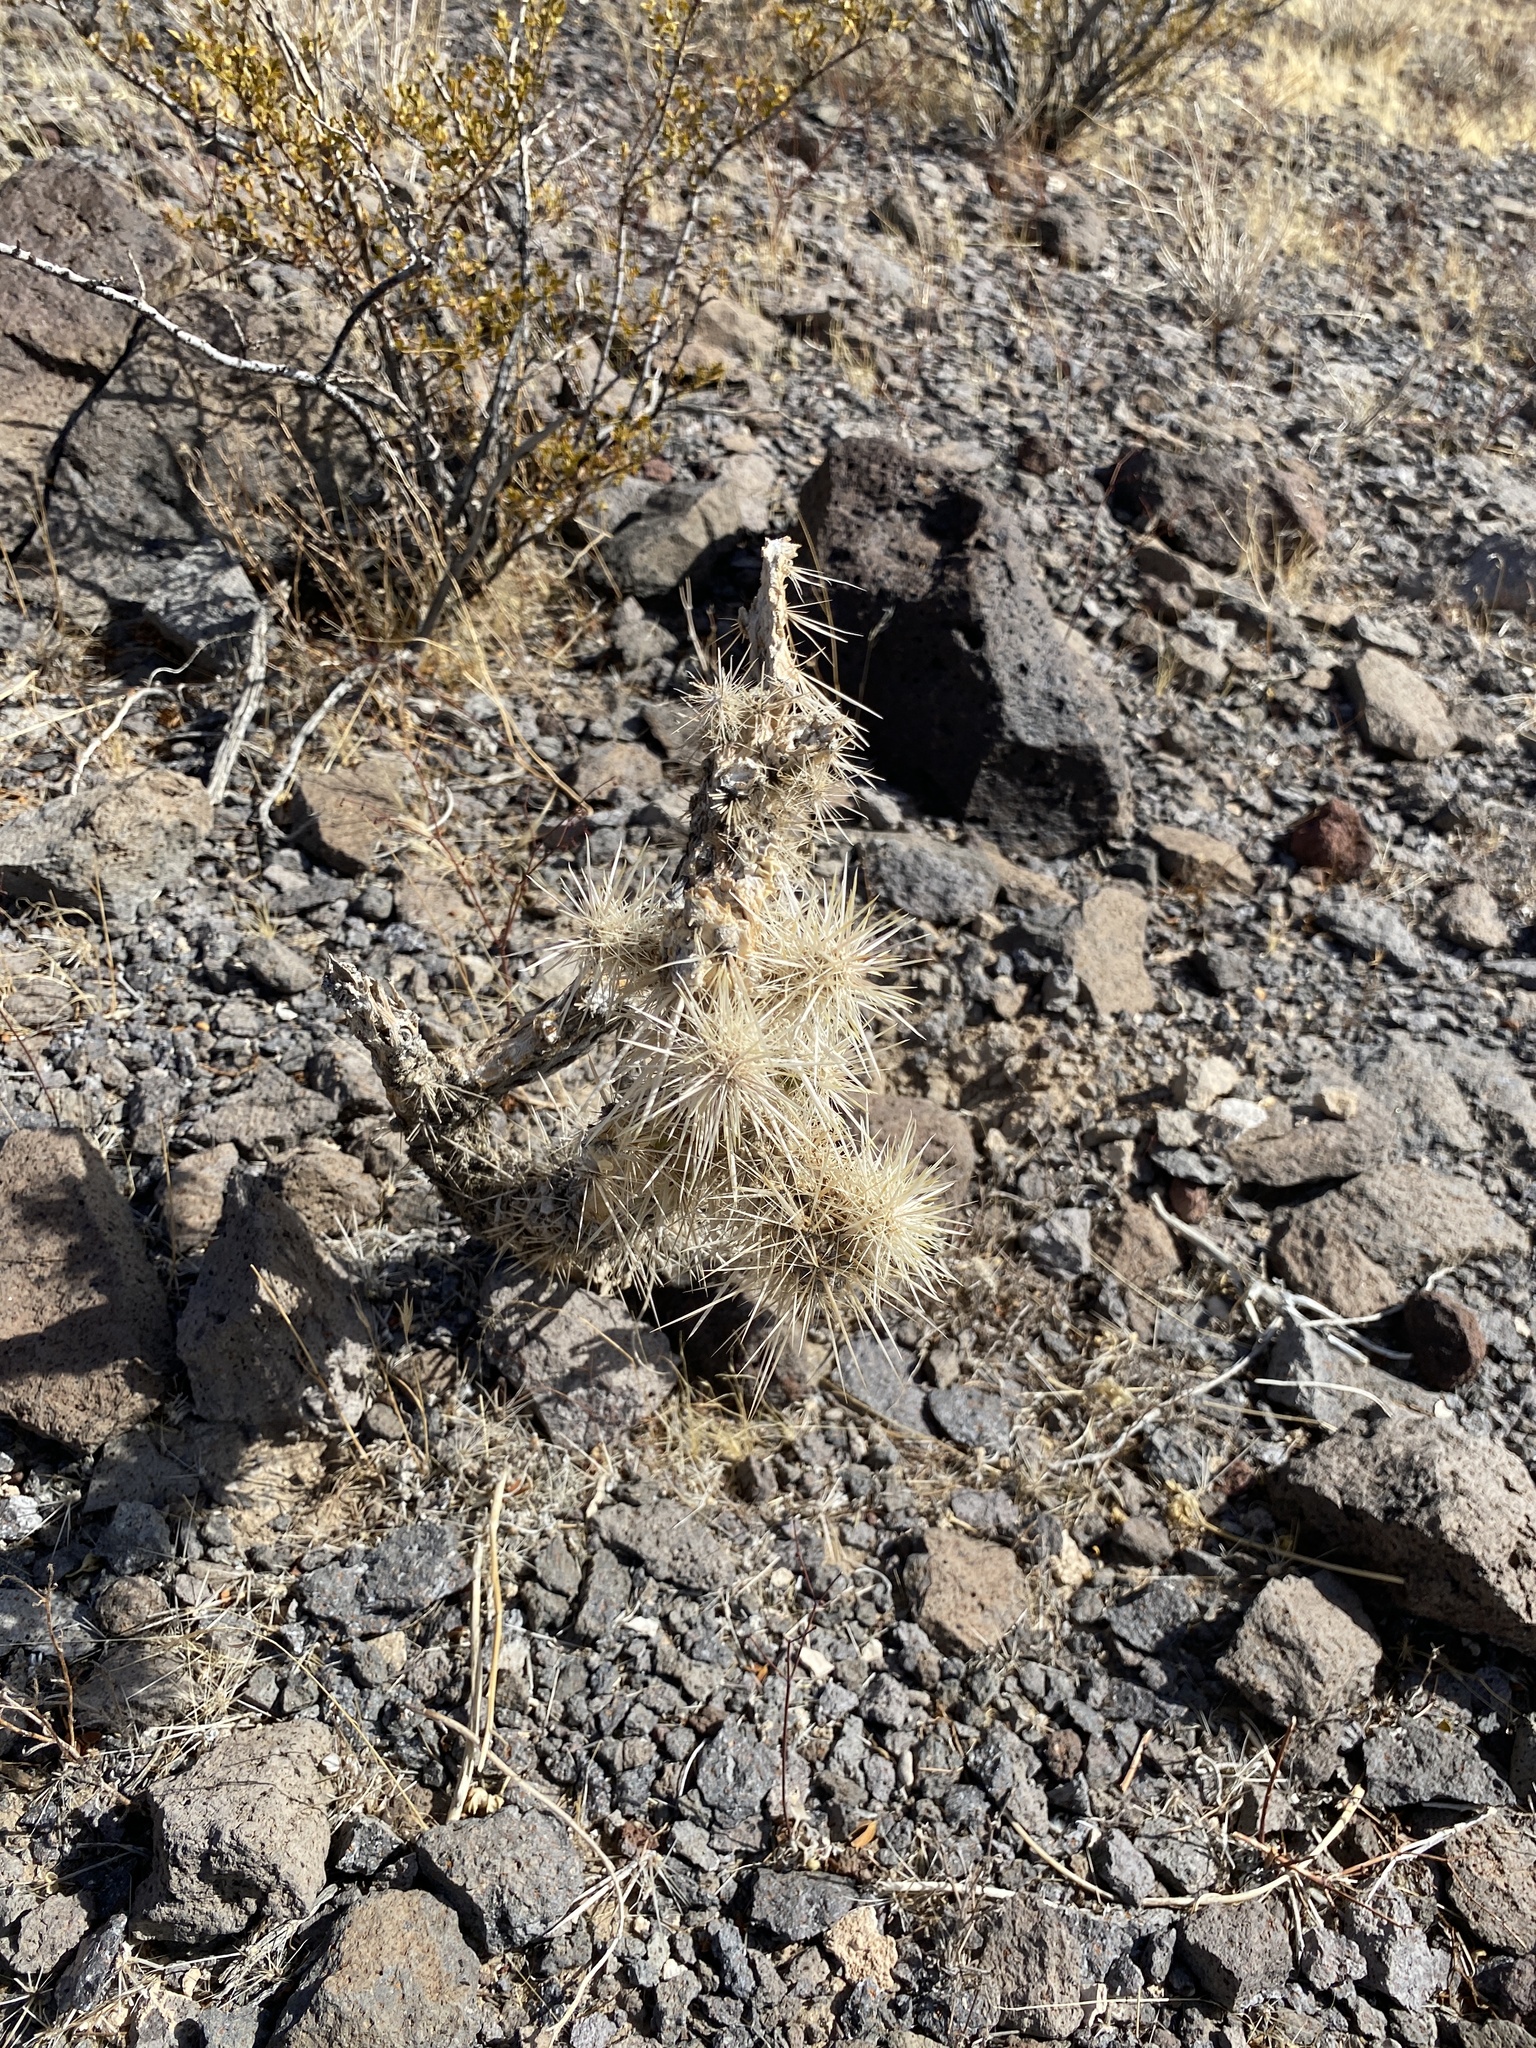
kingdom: Plantae
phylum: Tracheophyta
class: Magnoliopsida
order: Caryophyllales
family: Cactaceae
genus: Cylindropuntia
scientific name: Cylindropuntia echinocarpa
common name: Ground cholla
